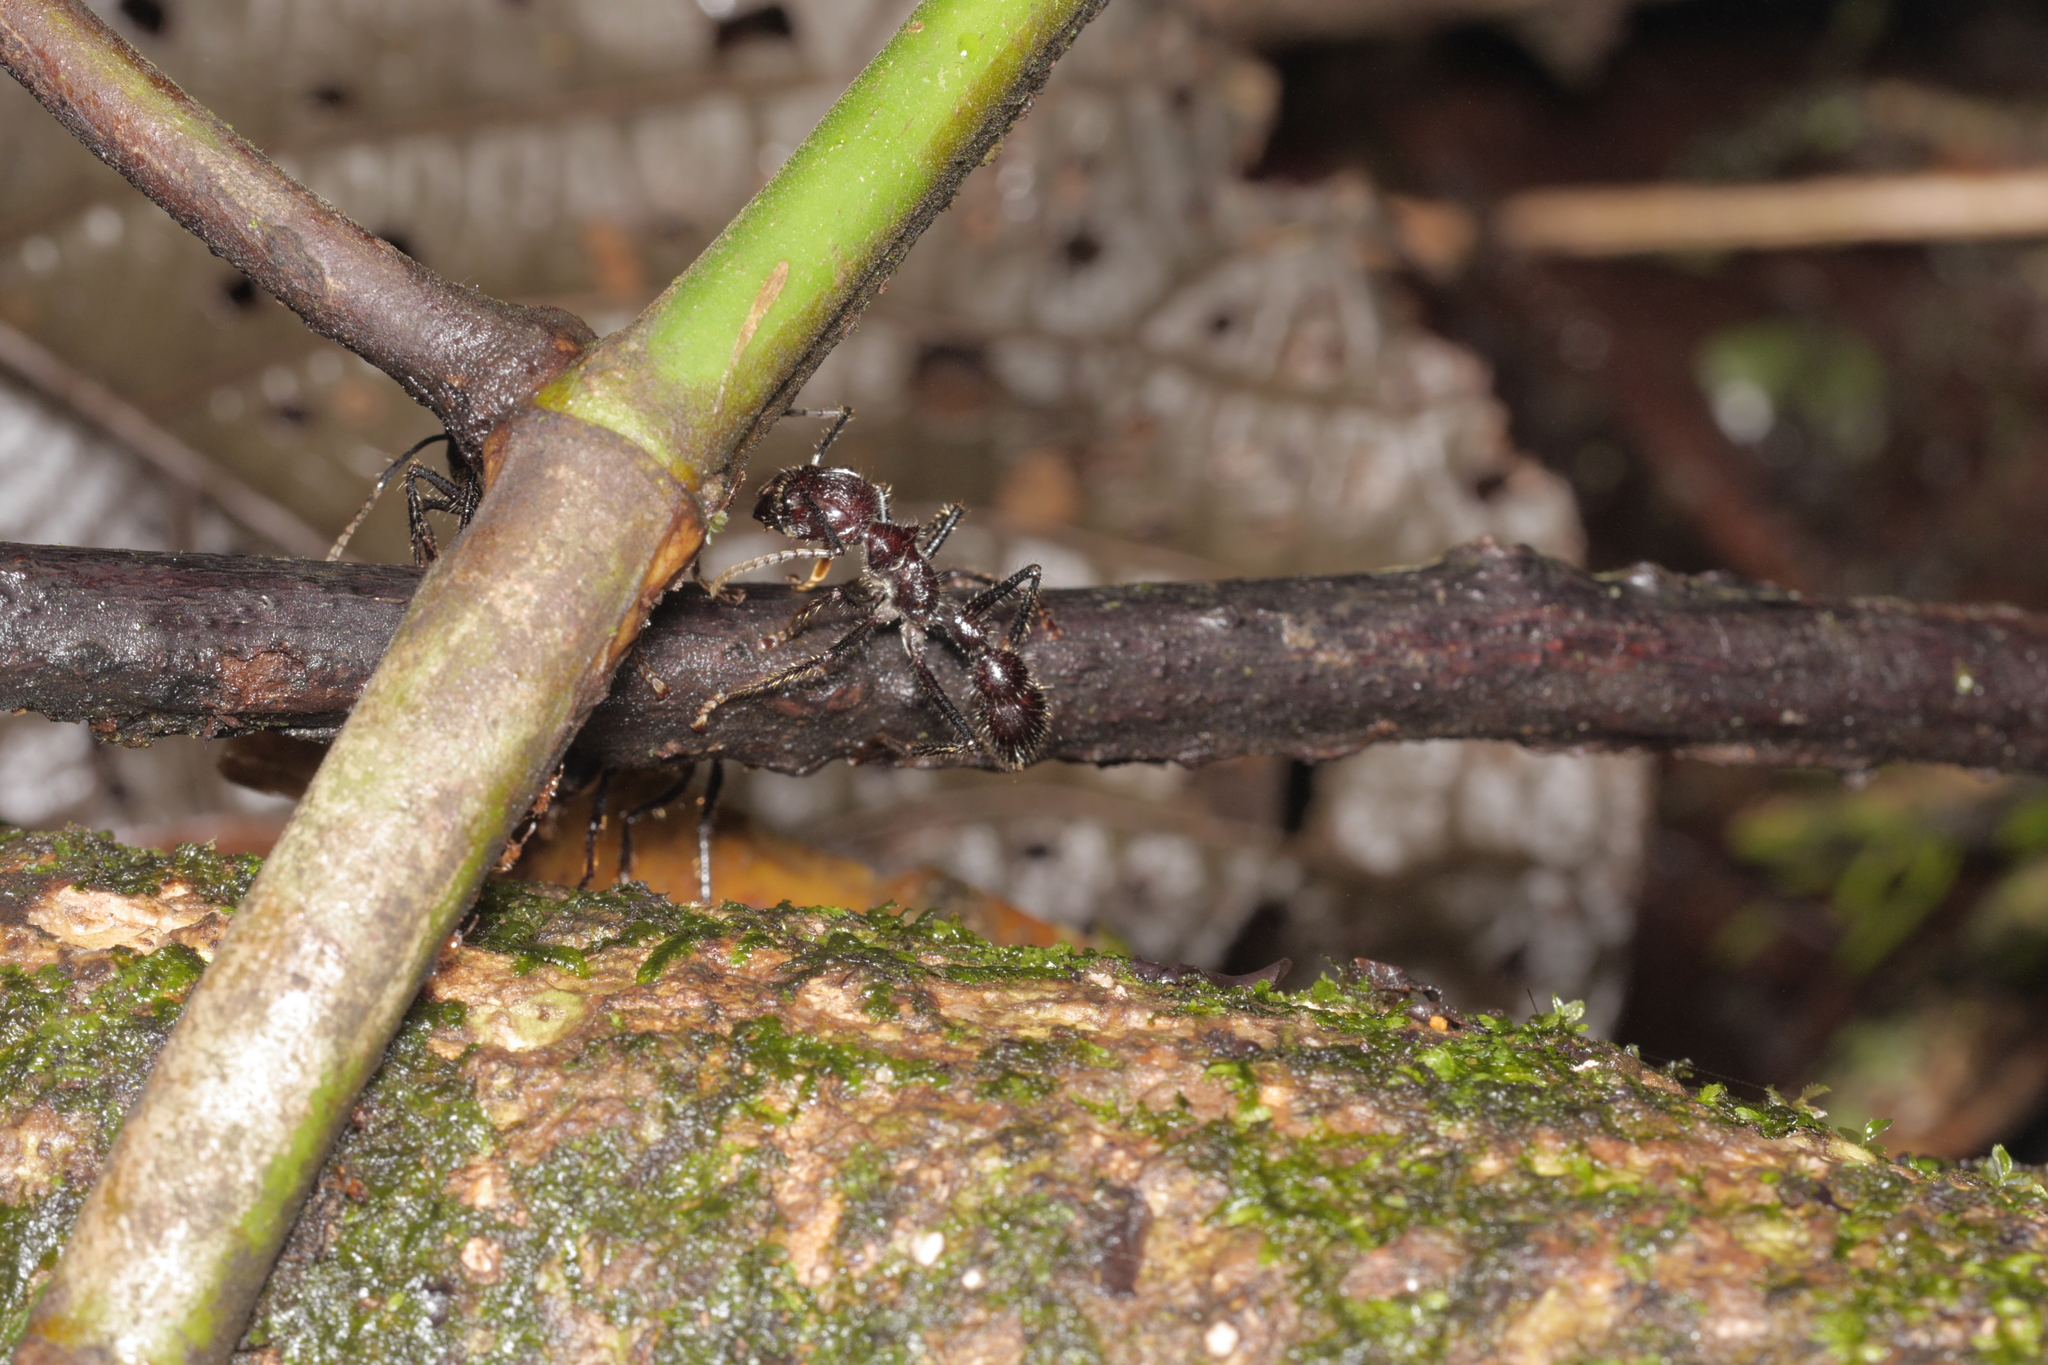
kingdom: Animalia
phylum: Arthropoda
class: Insecta
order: Hymenoptera
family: Formicidae
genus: Paraponera
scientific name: Paraponera clavata
